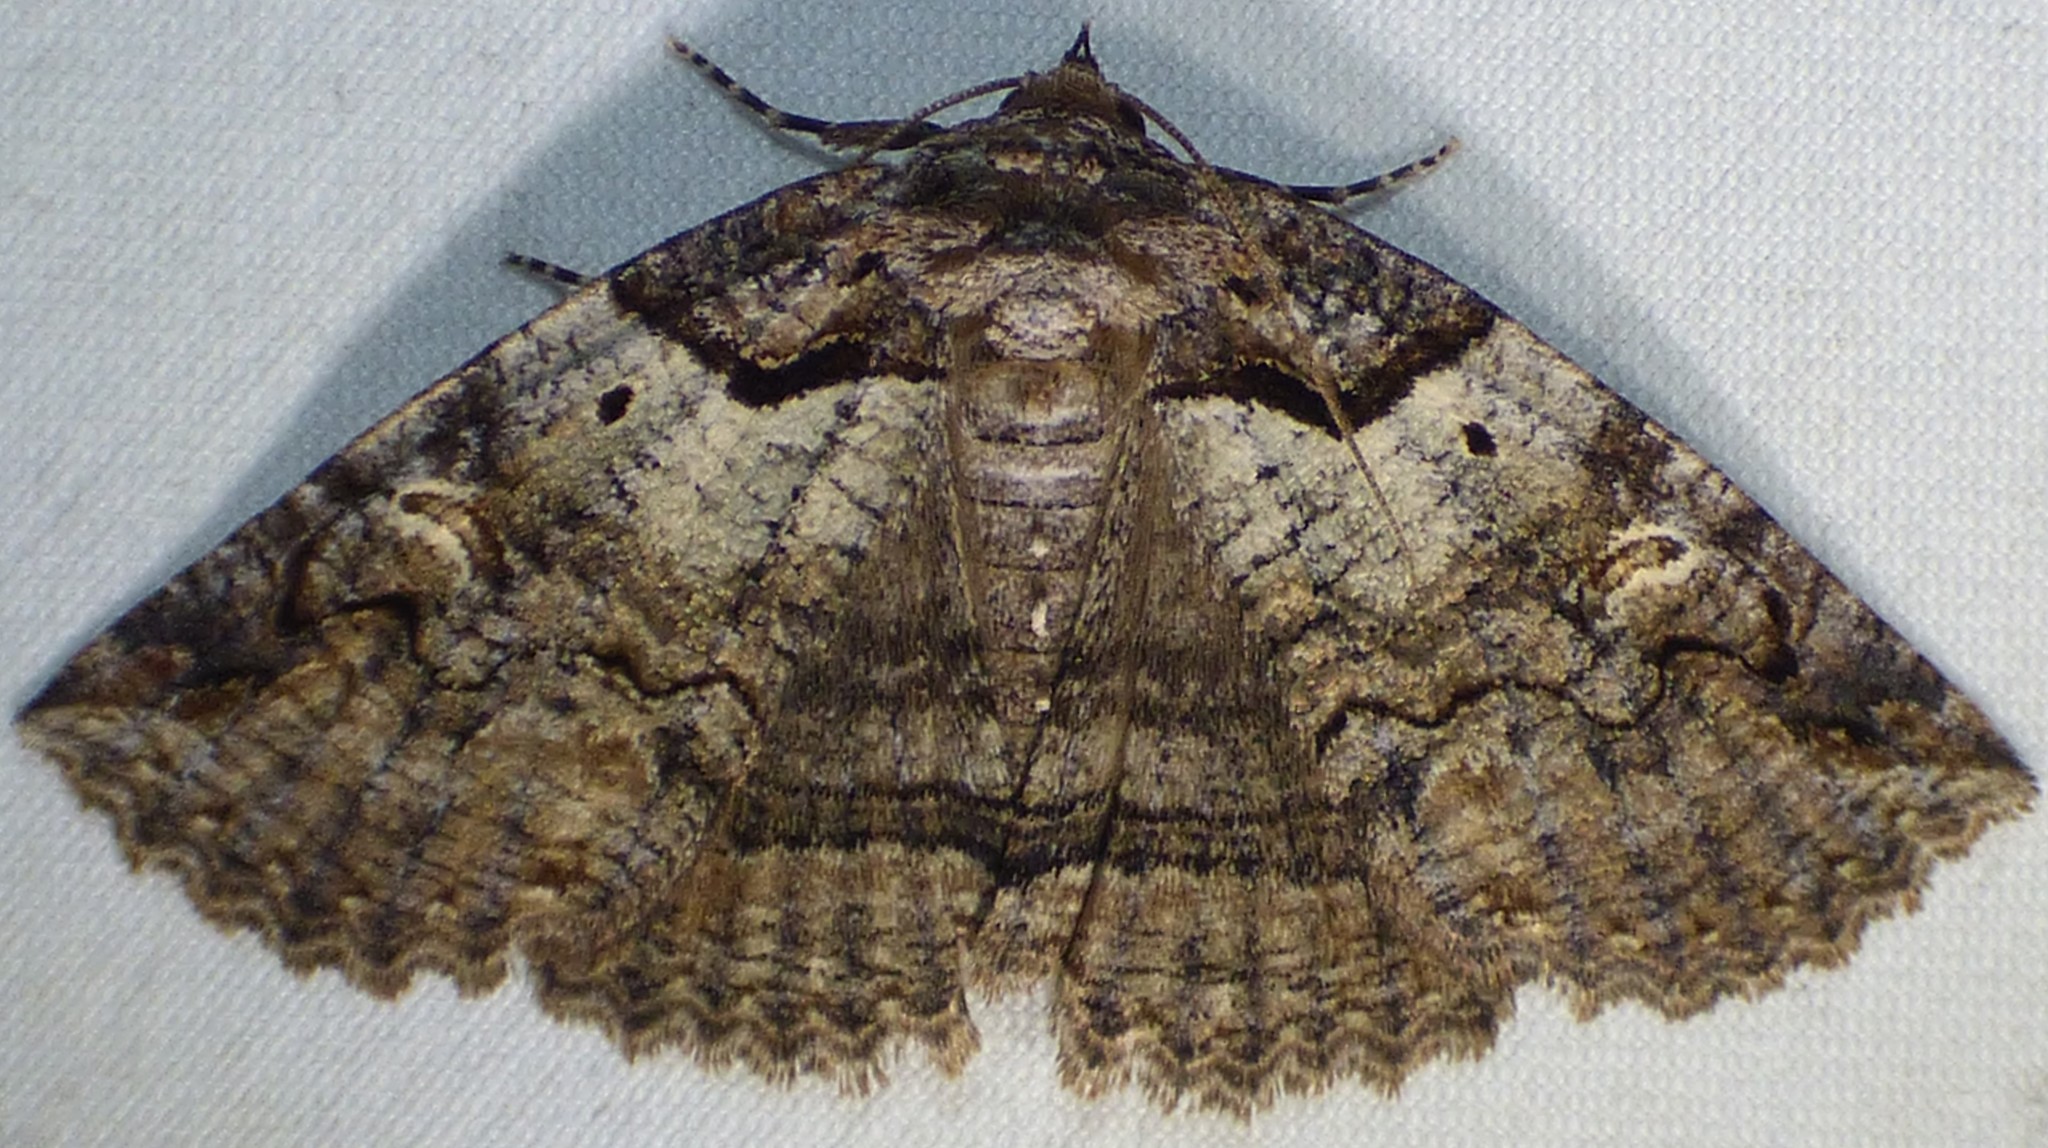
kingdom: Animalia
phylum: Arthropoda
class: Insecta
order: Lepidoptera
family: Erebidae
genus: Zale
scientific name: Zale intenta
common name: Intent zale moth
